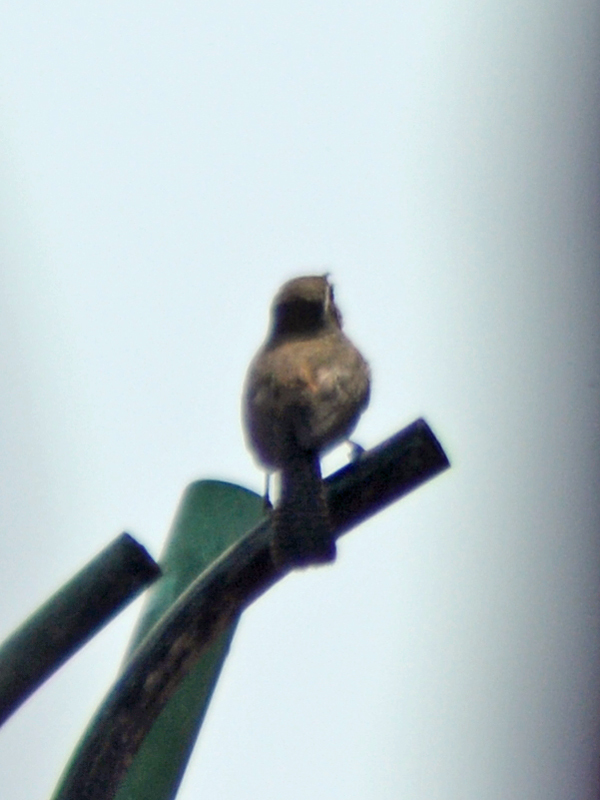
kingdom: Animalia
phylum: Chordata
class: Aves
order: Passeriformes
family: Troglodytidae
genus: Thryomanes
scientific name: Thryomanes bewickii
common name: Bewick's wren
